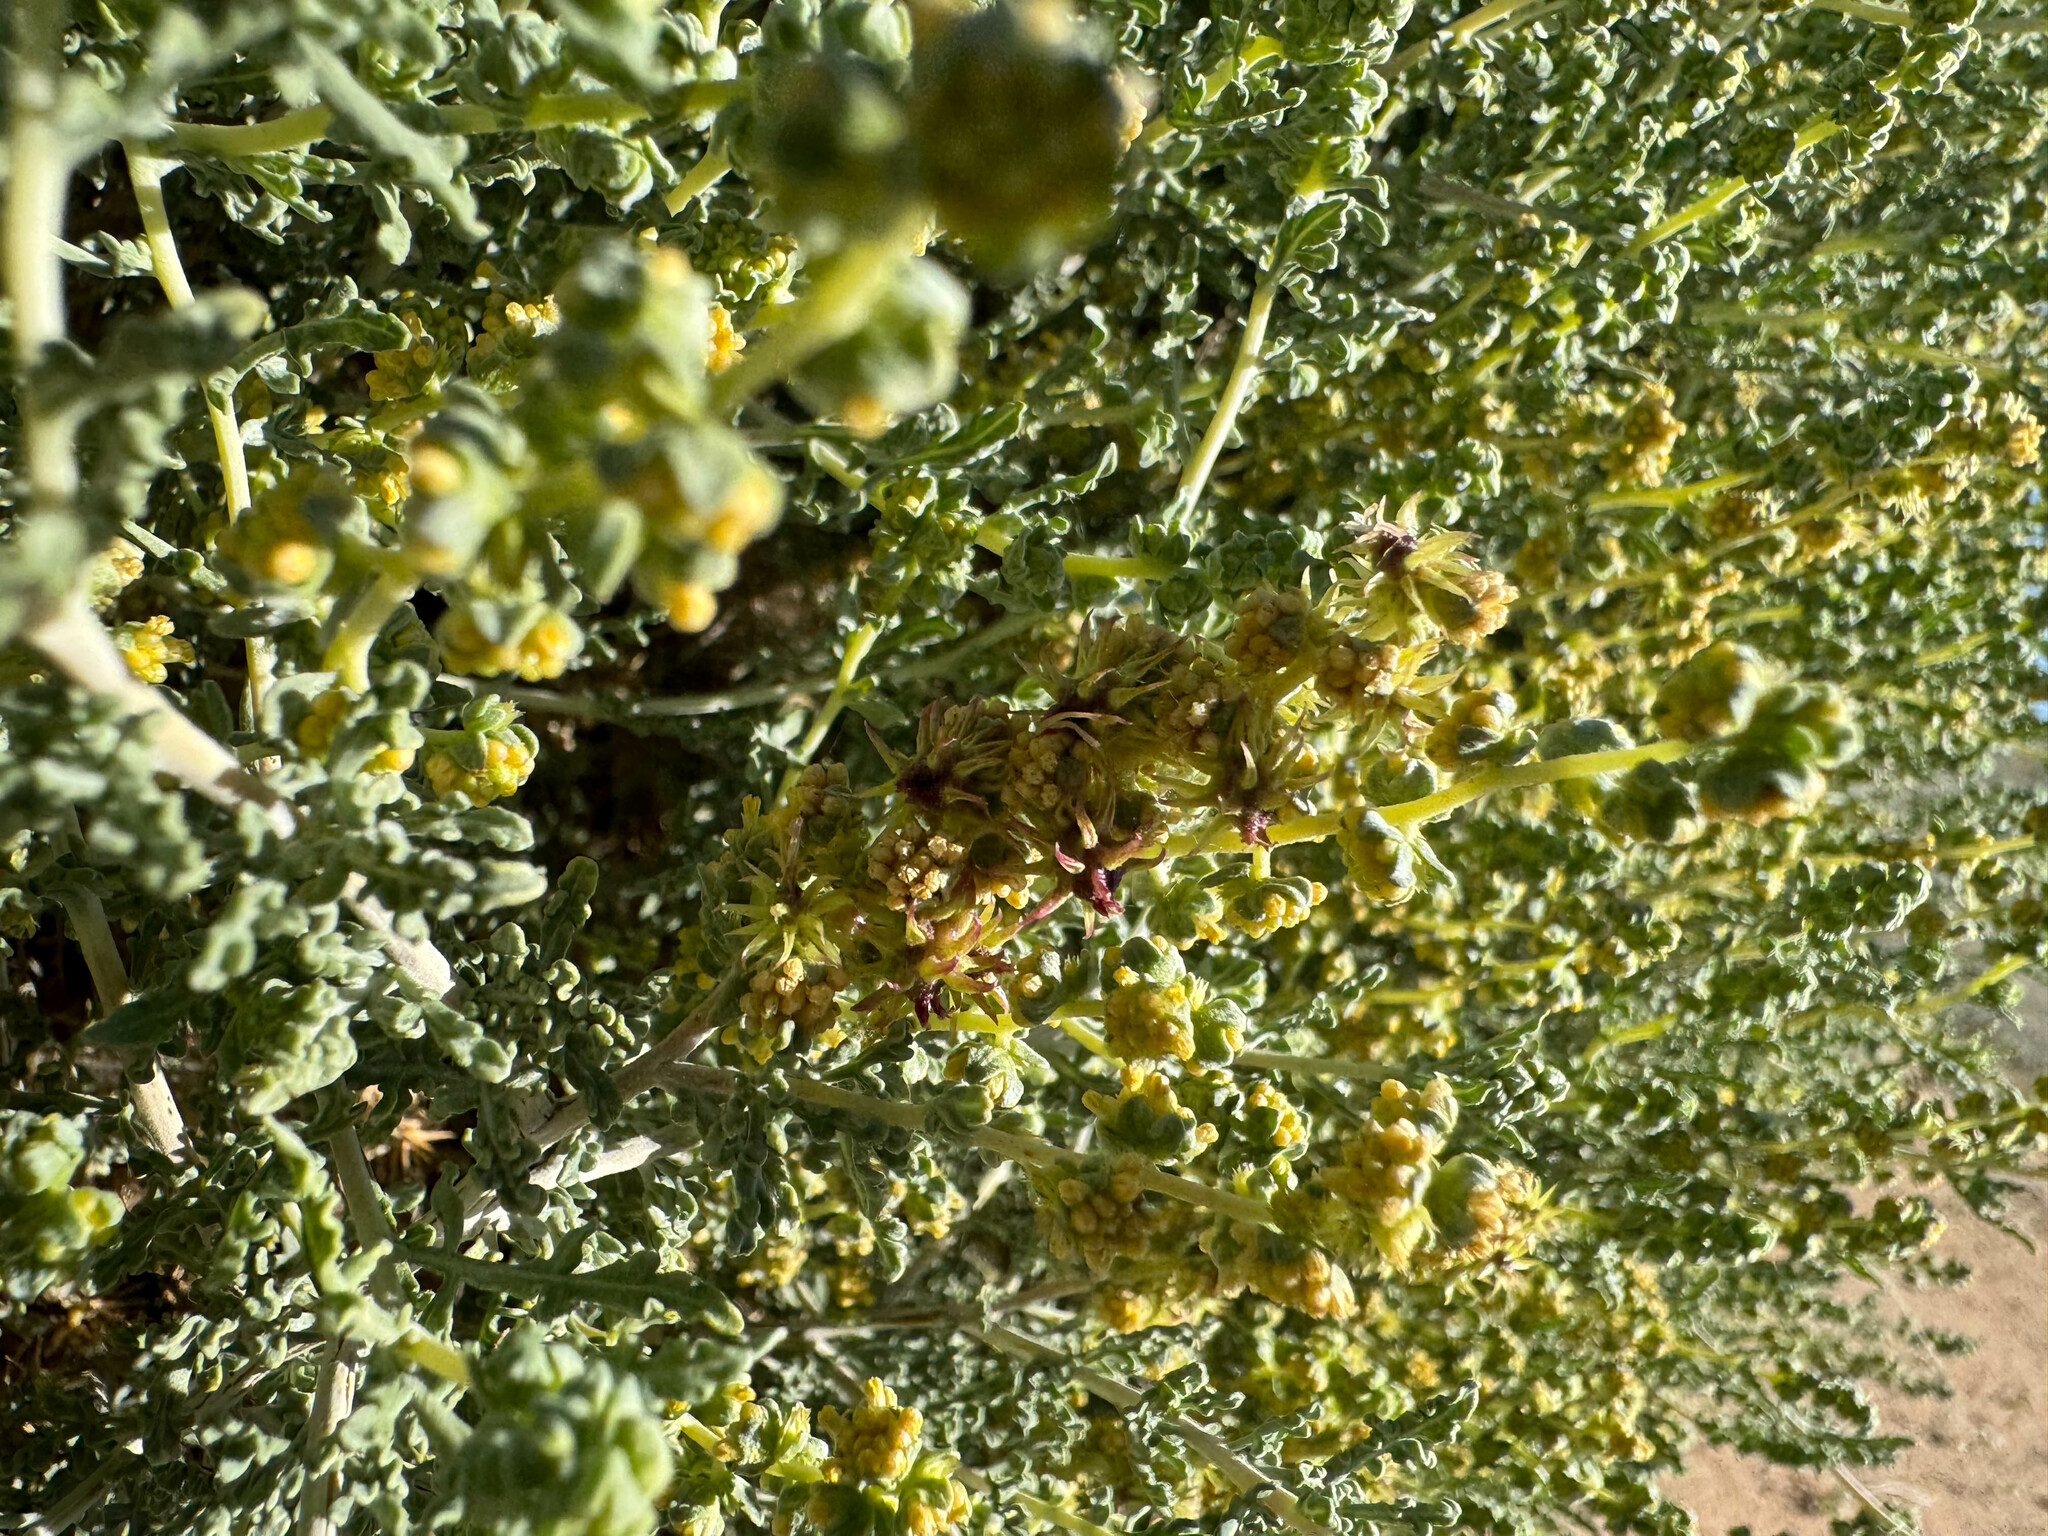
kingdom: Plantae
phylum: Tracheophyta
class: Magnoliopsida
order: Asterales
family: Asteraceae
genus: Ambrosia
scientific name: Ambrosia dumosa
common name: Bur-sage
